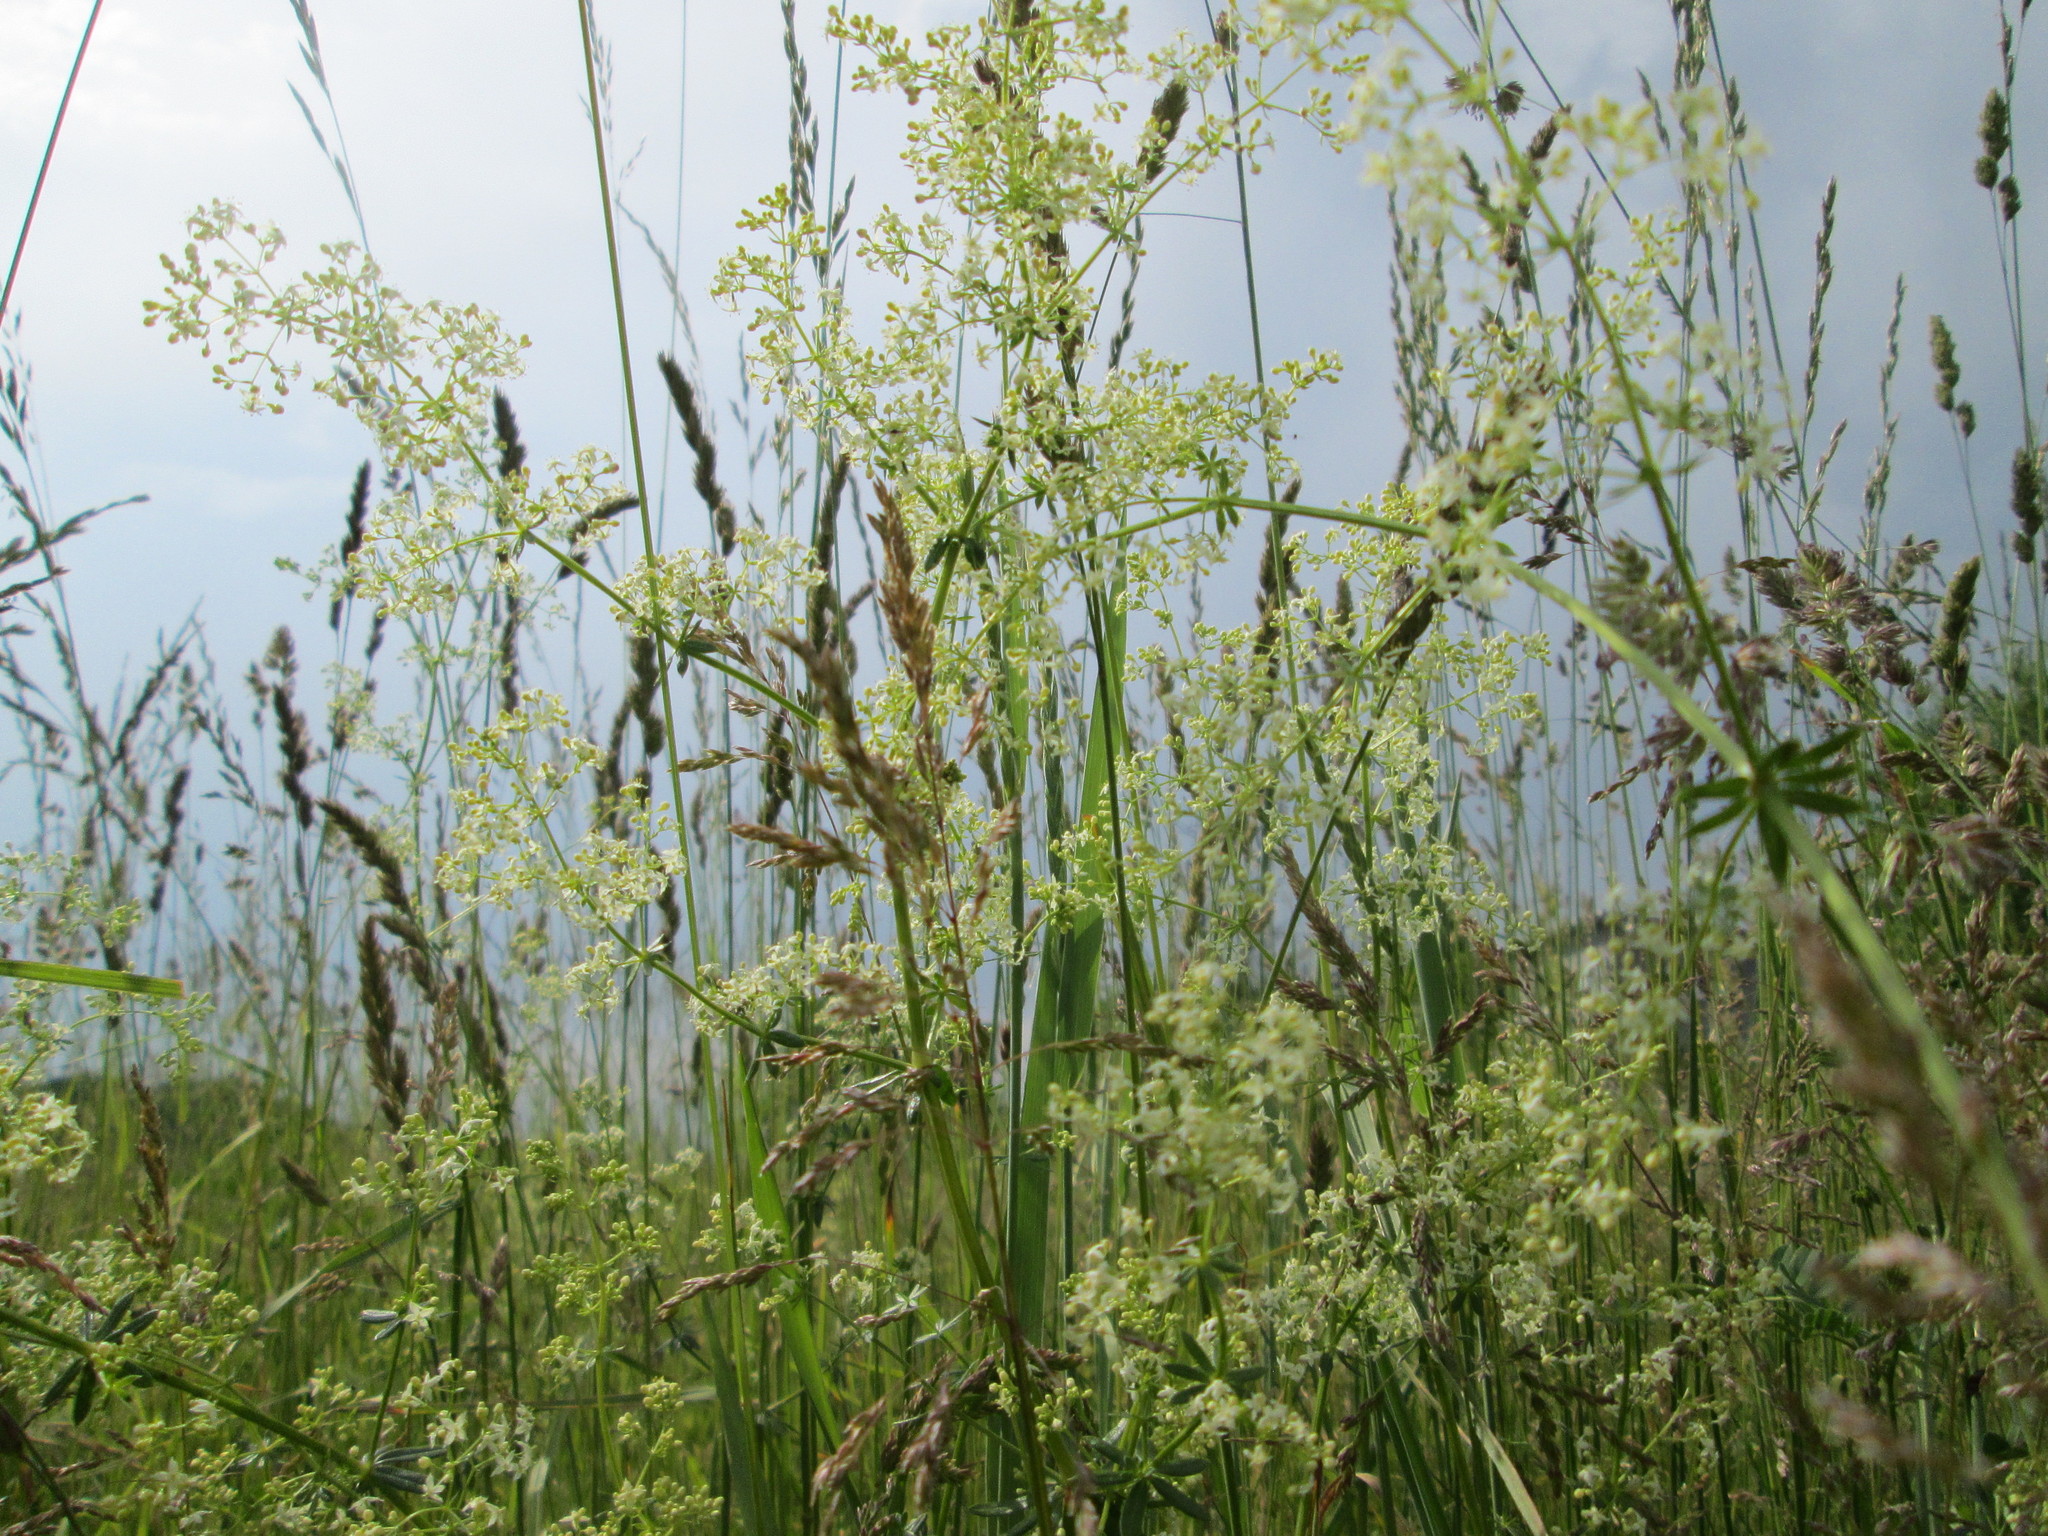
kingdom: Plantae
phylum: Tracheophyta
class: Magnoliopsida
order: Gentianales
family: Rubiaceae
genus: Galium
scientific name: Galium mollugo
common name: Hedge bedstraw
